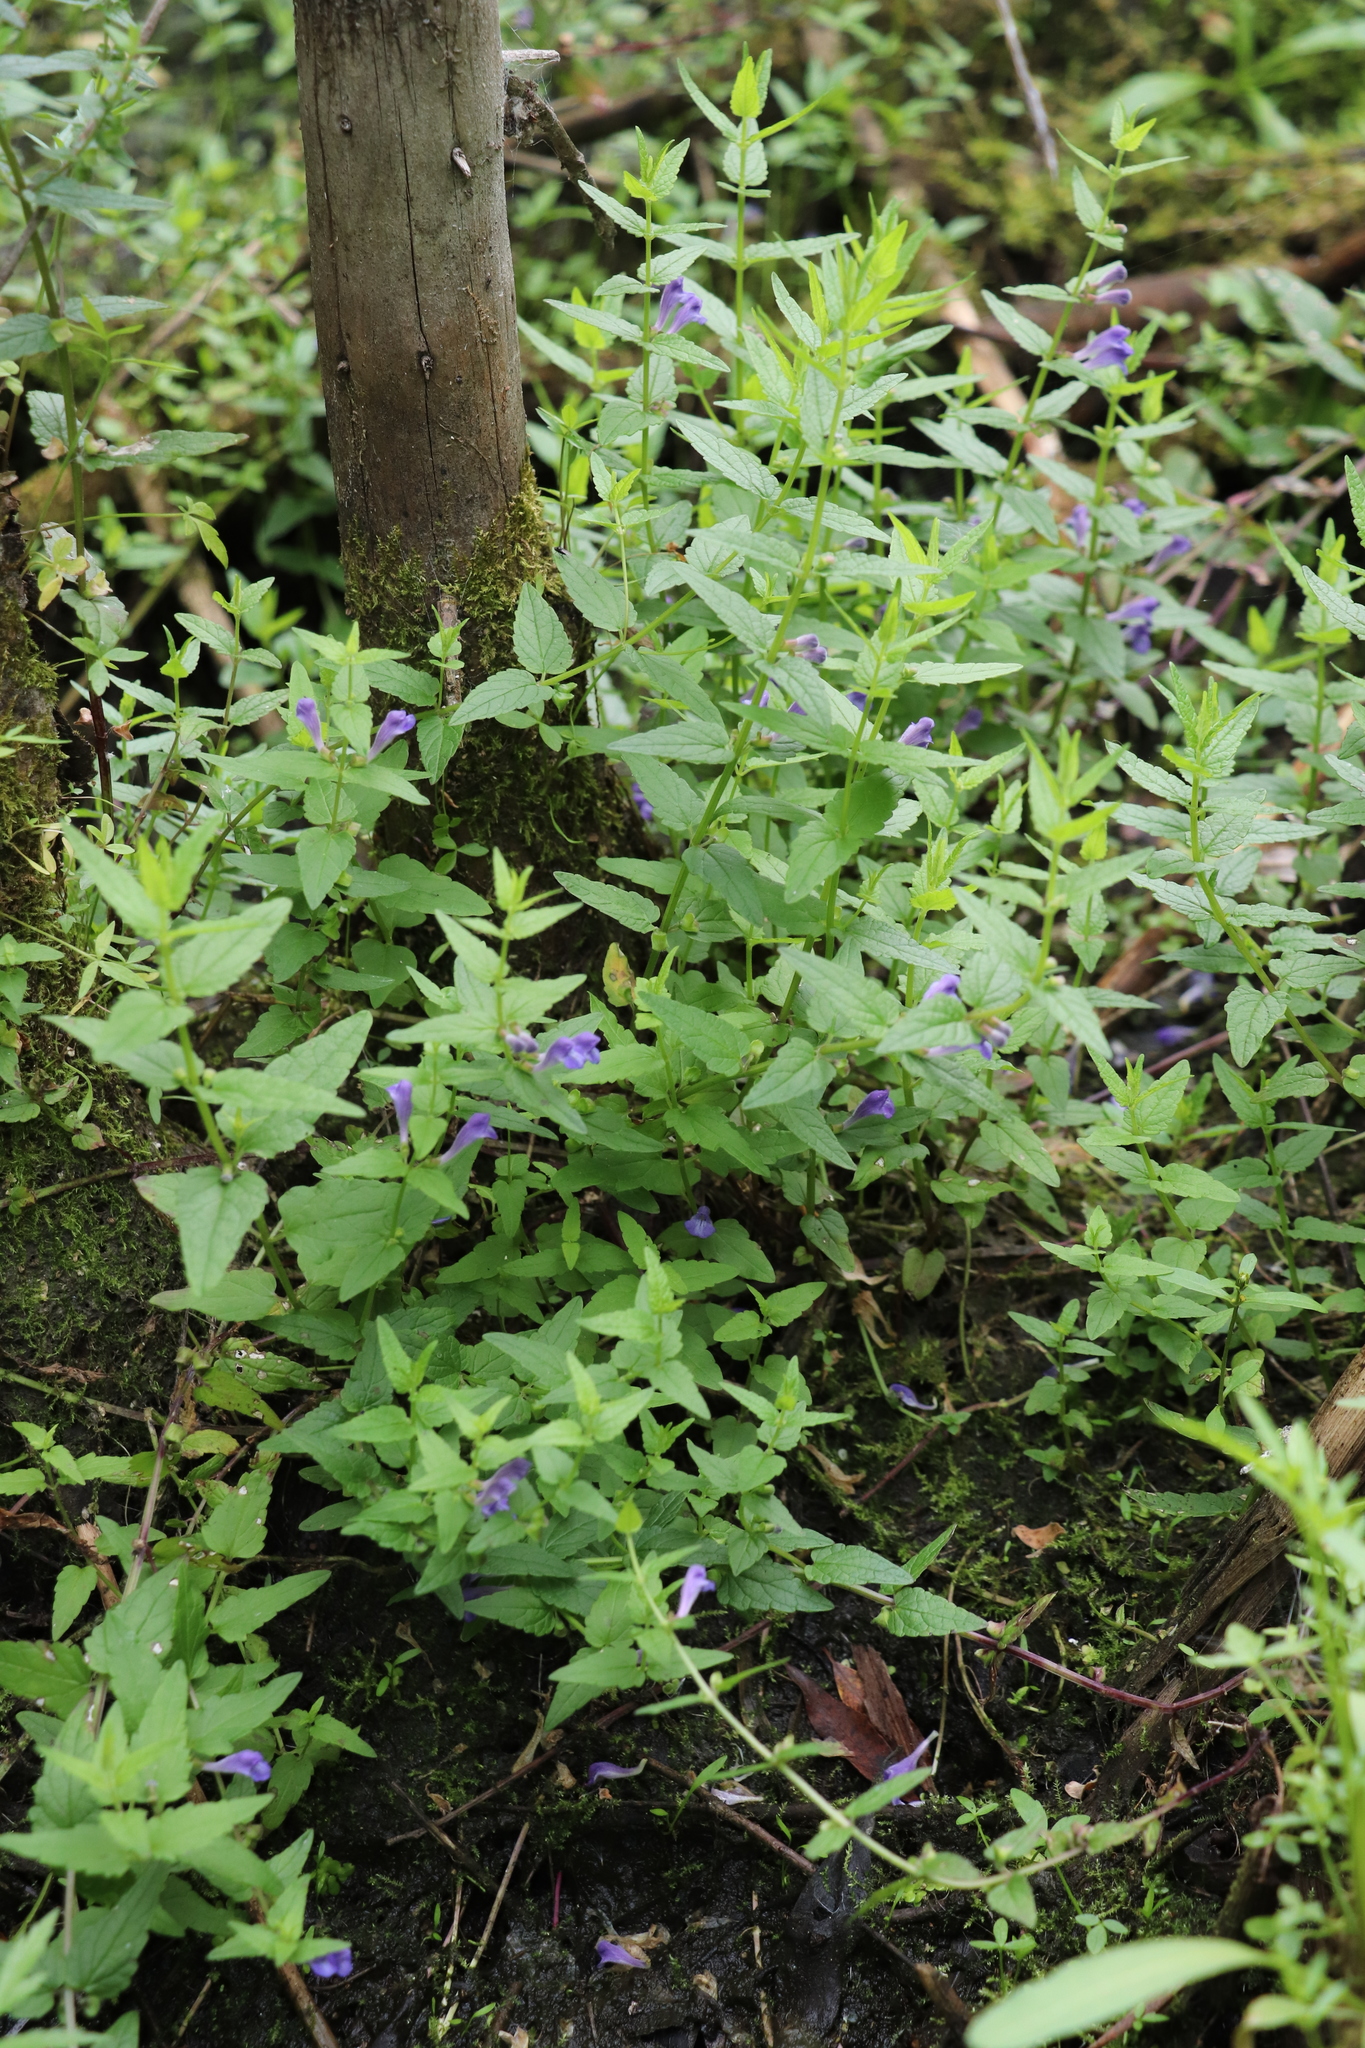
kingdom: Plantae
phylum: Tracheophyta
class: Magnoliopsida
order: Lamiales
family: Lamiaceae
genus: Scutellaria
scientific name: Scutellaria galericulata
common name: Skullcap
